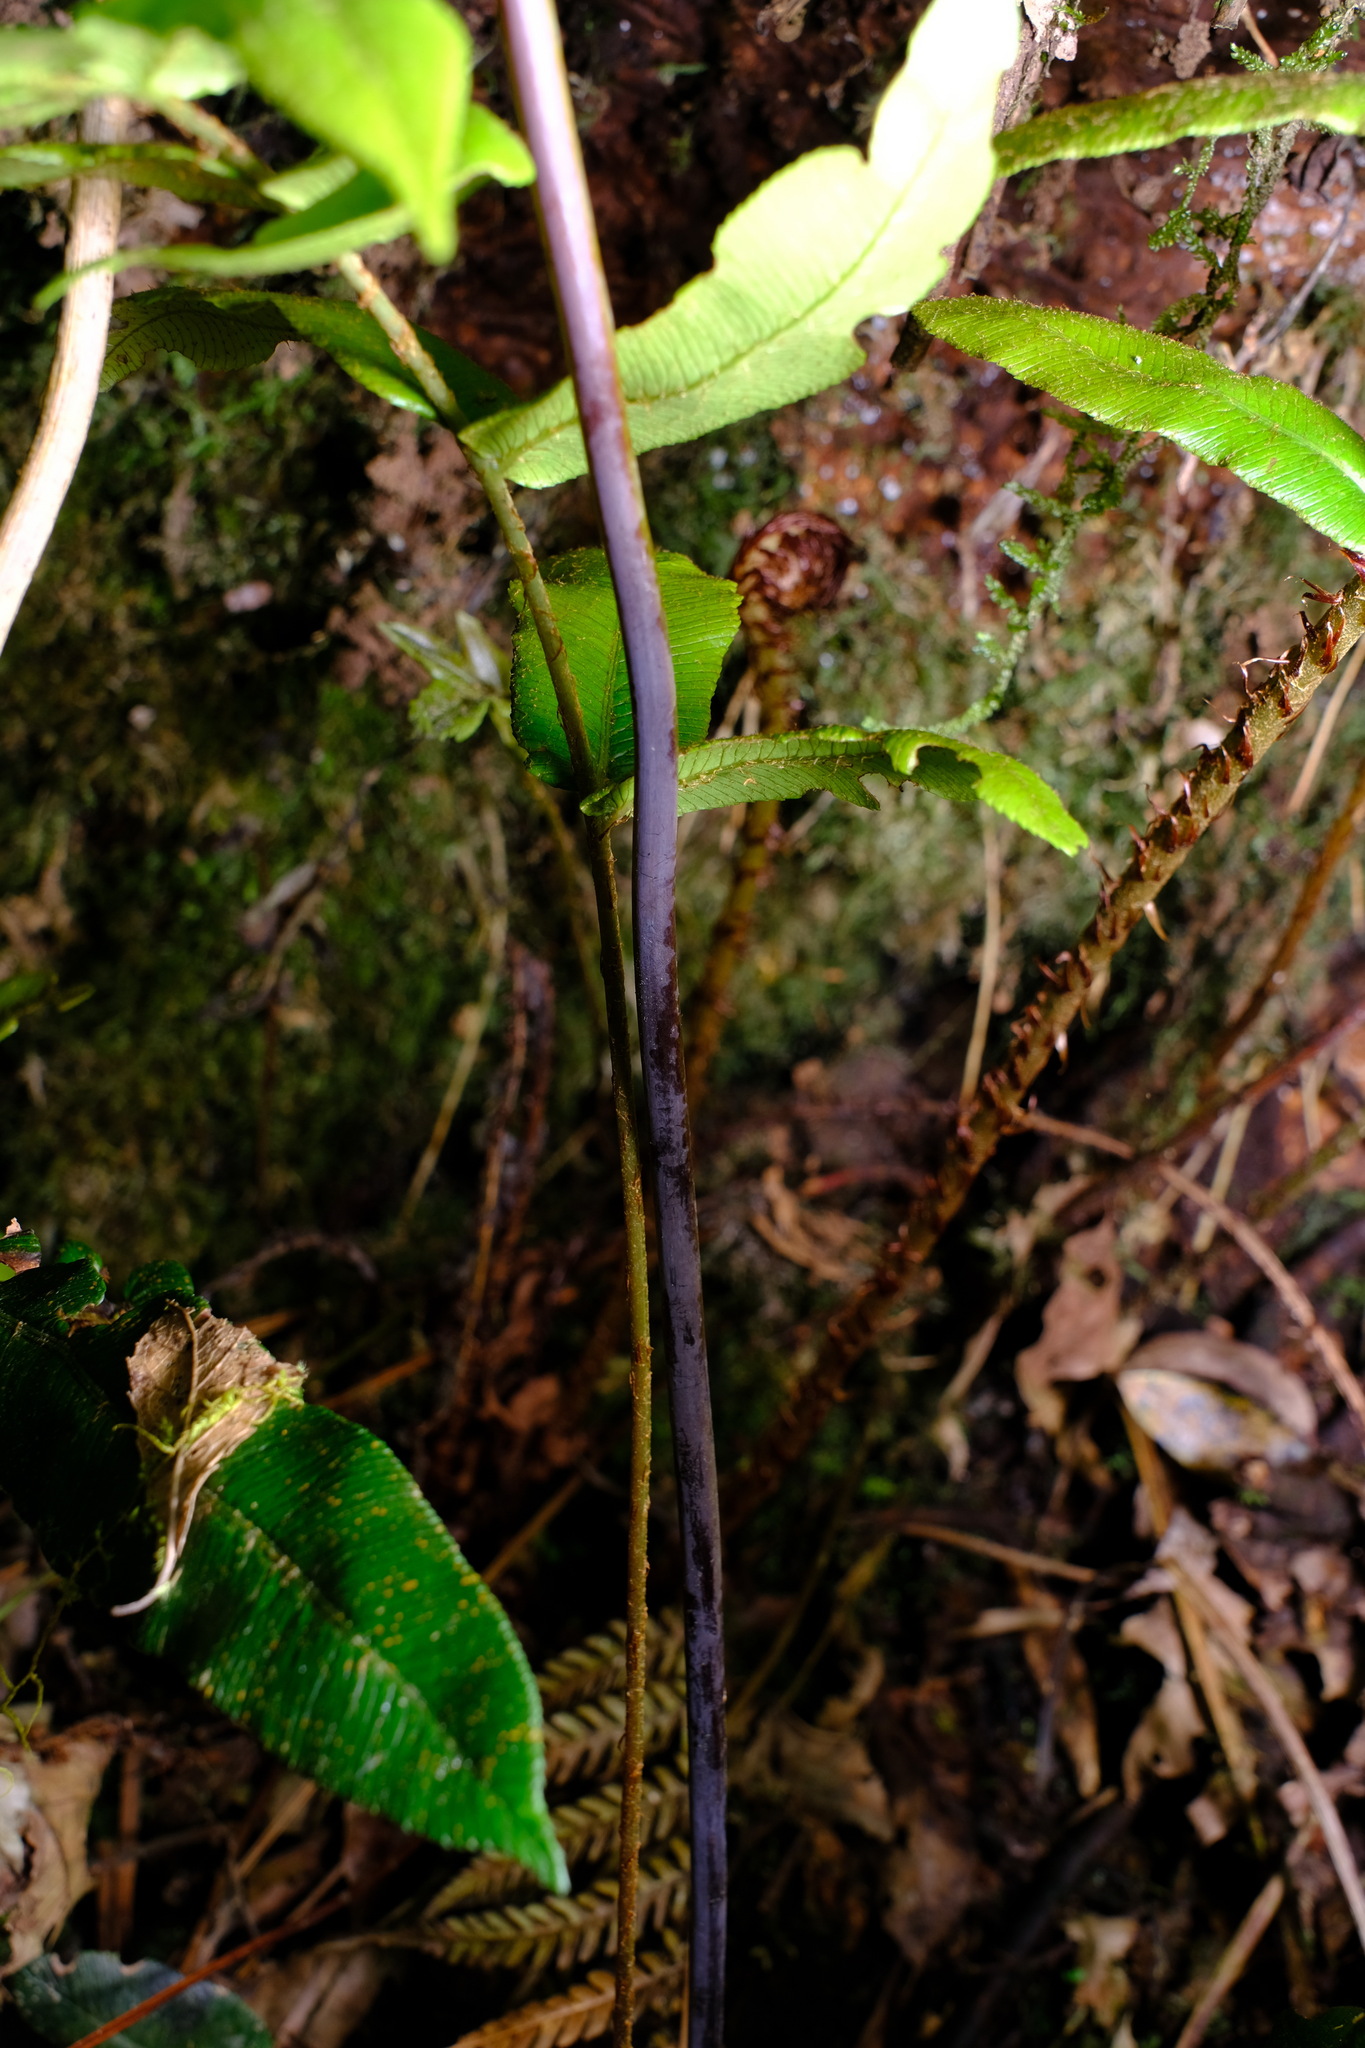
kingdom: Plantae
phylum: Tracheophyta
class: Polypodiopsida
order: Polypodiales
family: Dennstaedtiaceae
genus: Histiopteris
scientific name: Histiopteris incisa
